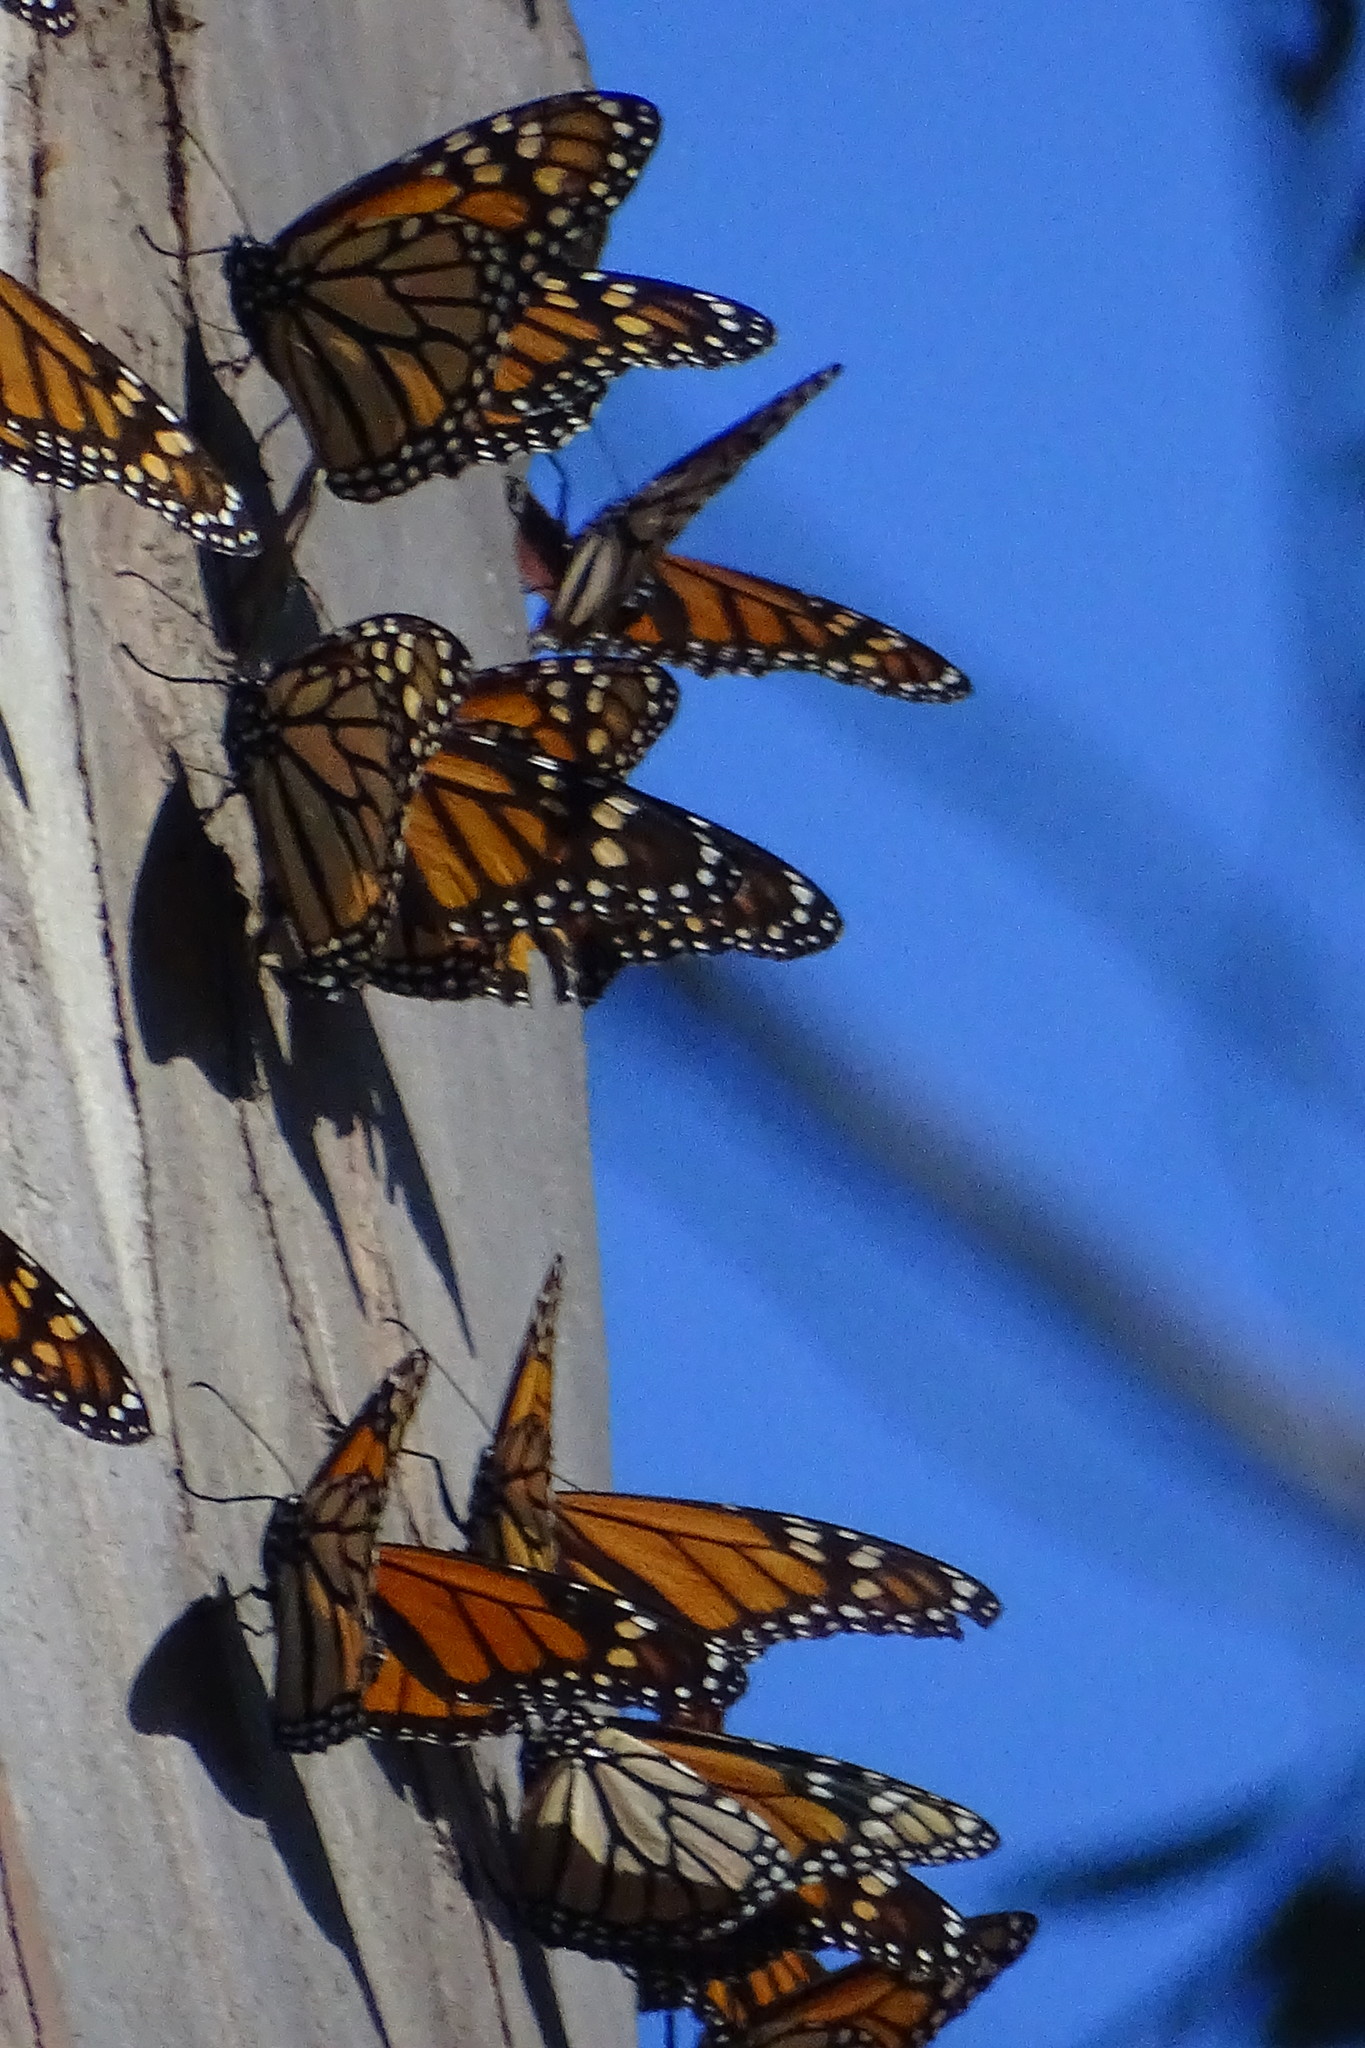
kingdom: Animalia
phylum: Arthropoda
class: Insecta
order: Lepidoptera
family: Nymphalidae
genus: Danaus
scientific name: Danaus plexippus
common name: Monarch
